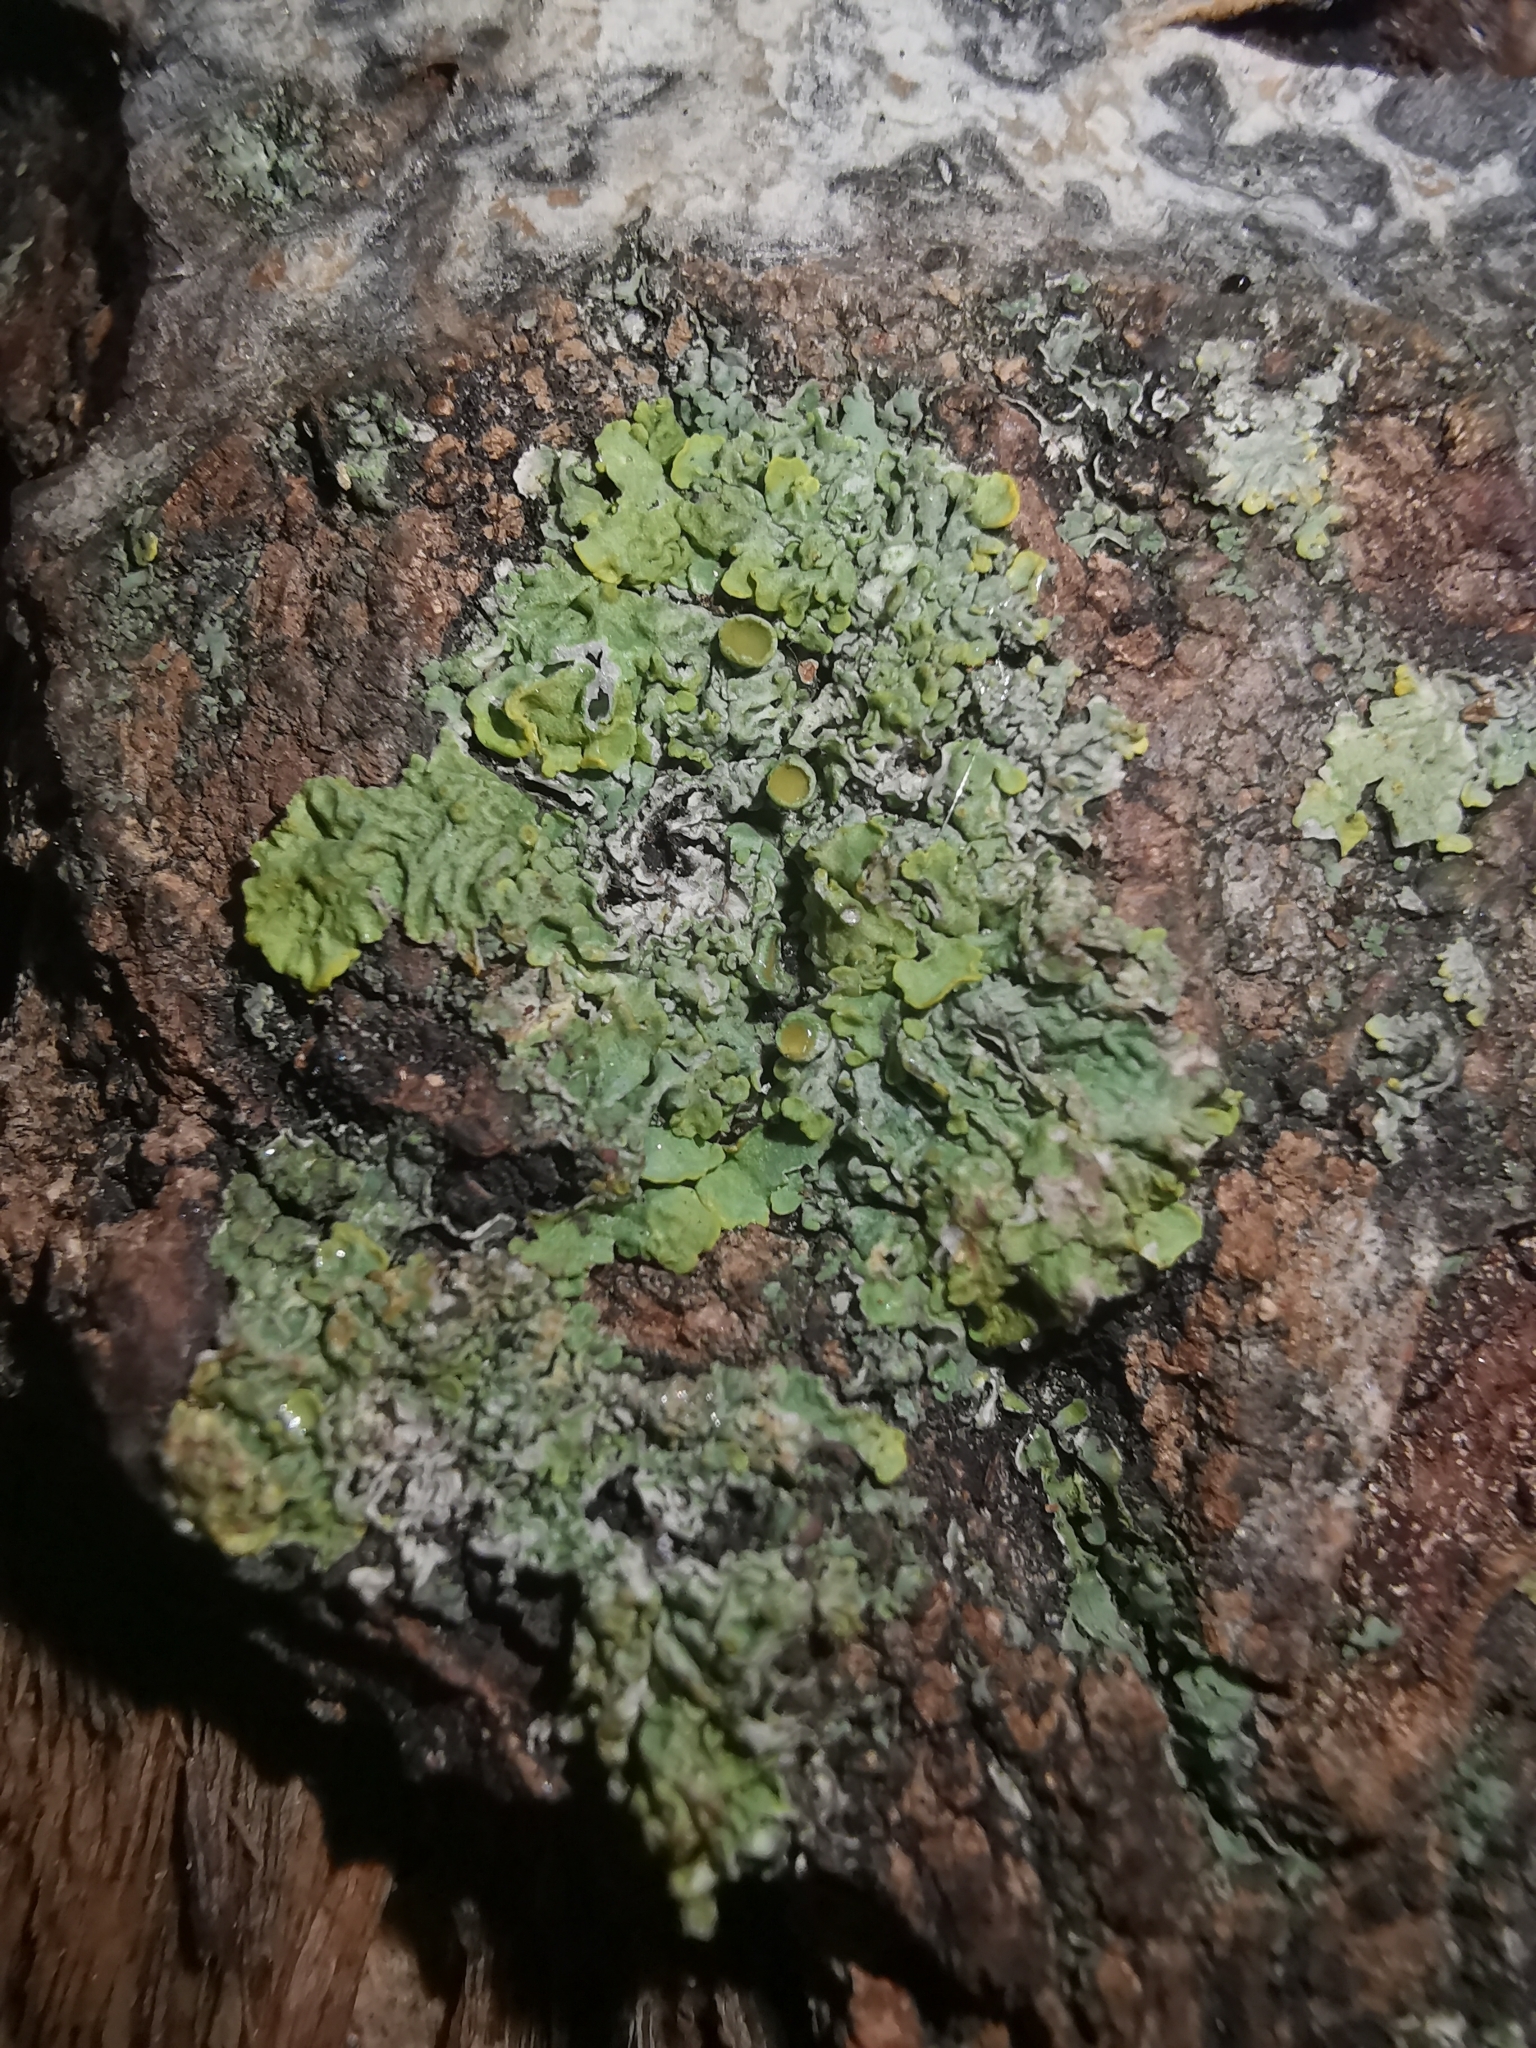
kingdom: Fungi
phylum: Ascomycota
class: Lecanoromycetes
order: Teloschistales
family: Teloschistaceae
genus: Xanthoria
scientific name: Xanthoria parietina
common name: Common orange lichen
